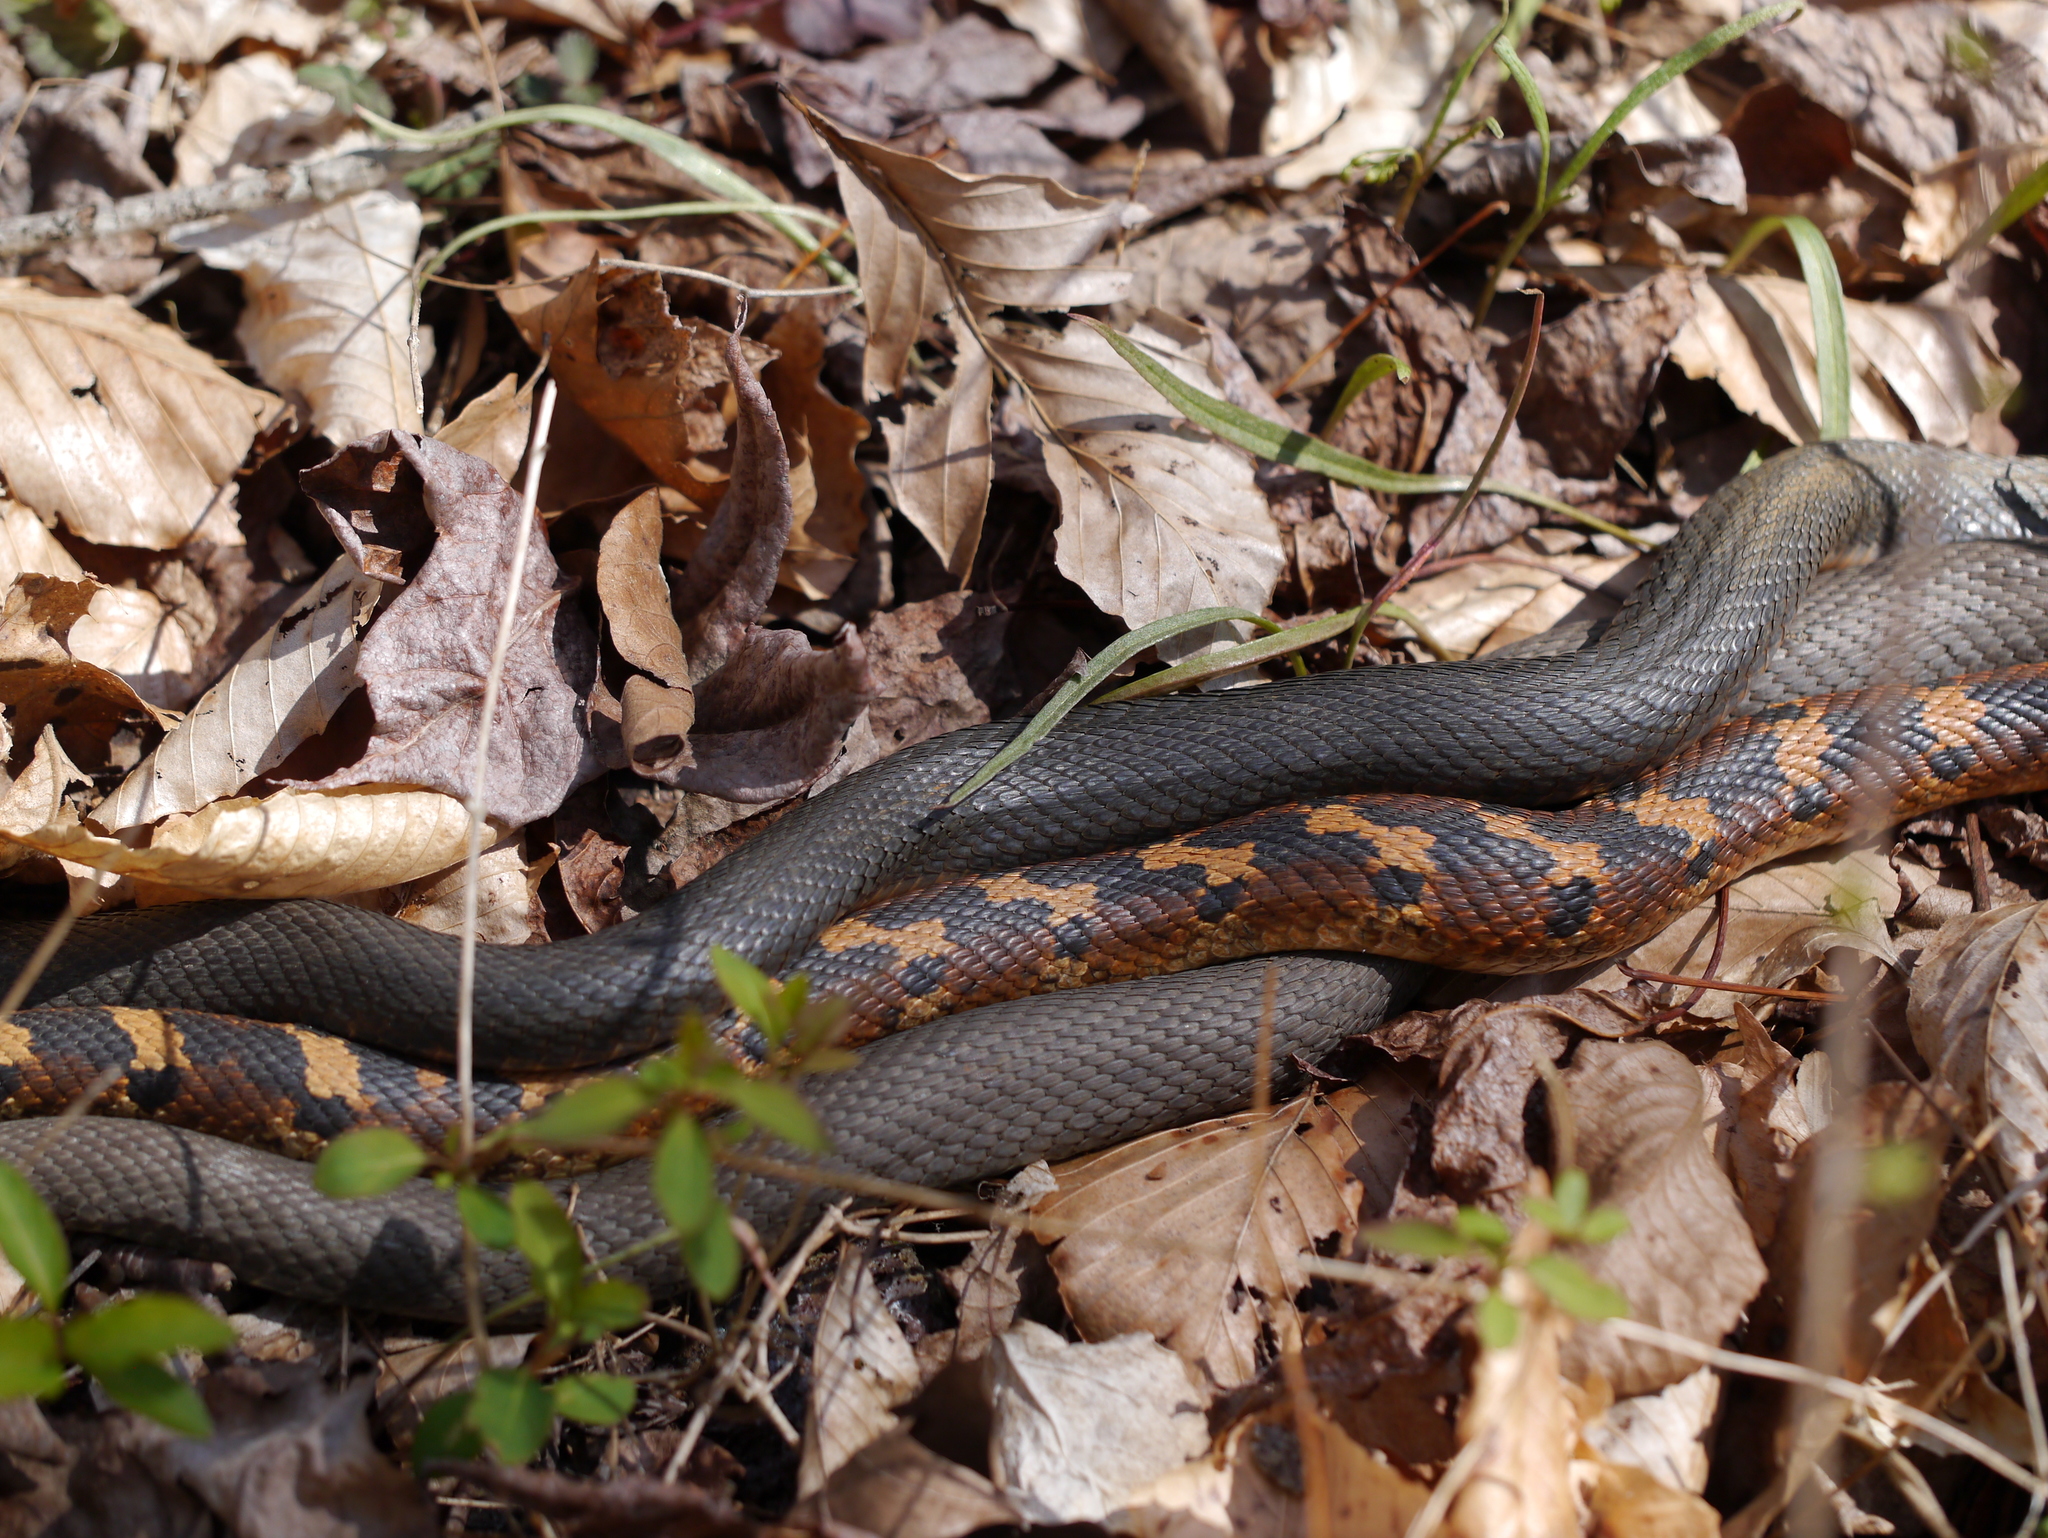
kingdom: Animalia
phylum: Chordata
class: Squamata
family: Colubridae
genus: Heterodon
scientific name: Heterodon platirhinos
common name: Eastern hognose snake
